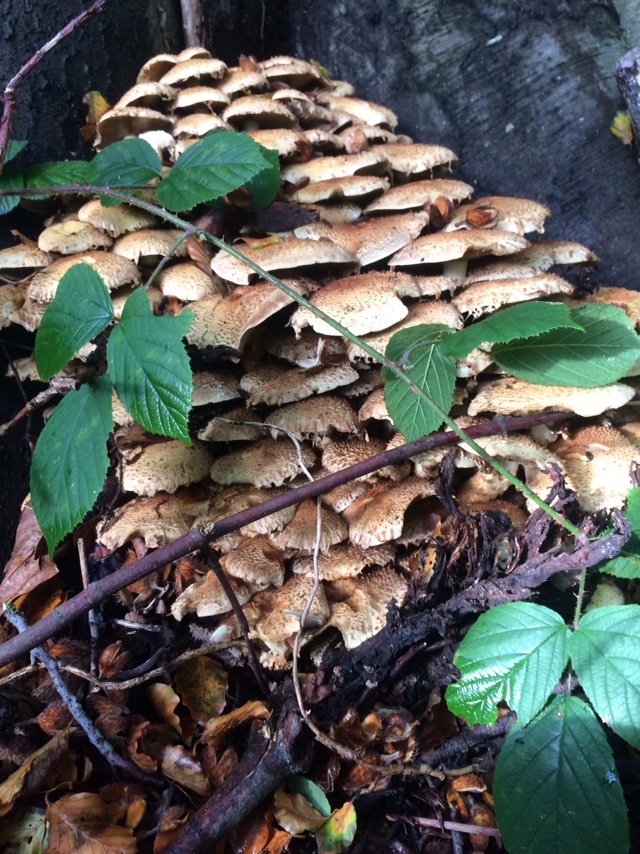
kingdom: Fungi
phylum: Basidiomycota
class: Agaricomycetes
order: Agaricales
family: Strophariaceae
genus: Pholiota
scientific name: Pholiota squarrosa
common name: Shaggy pholiota
